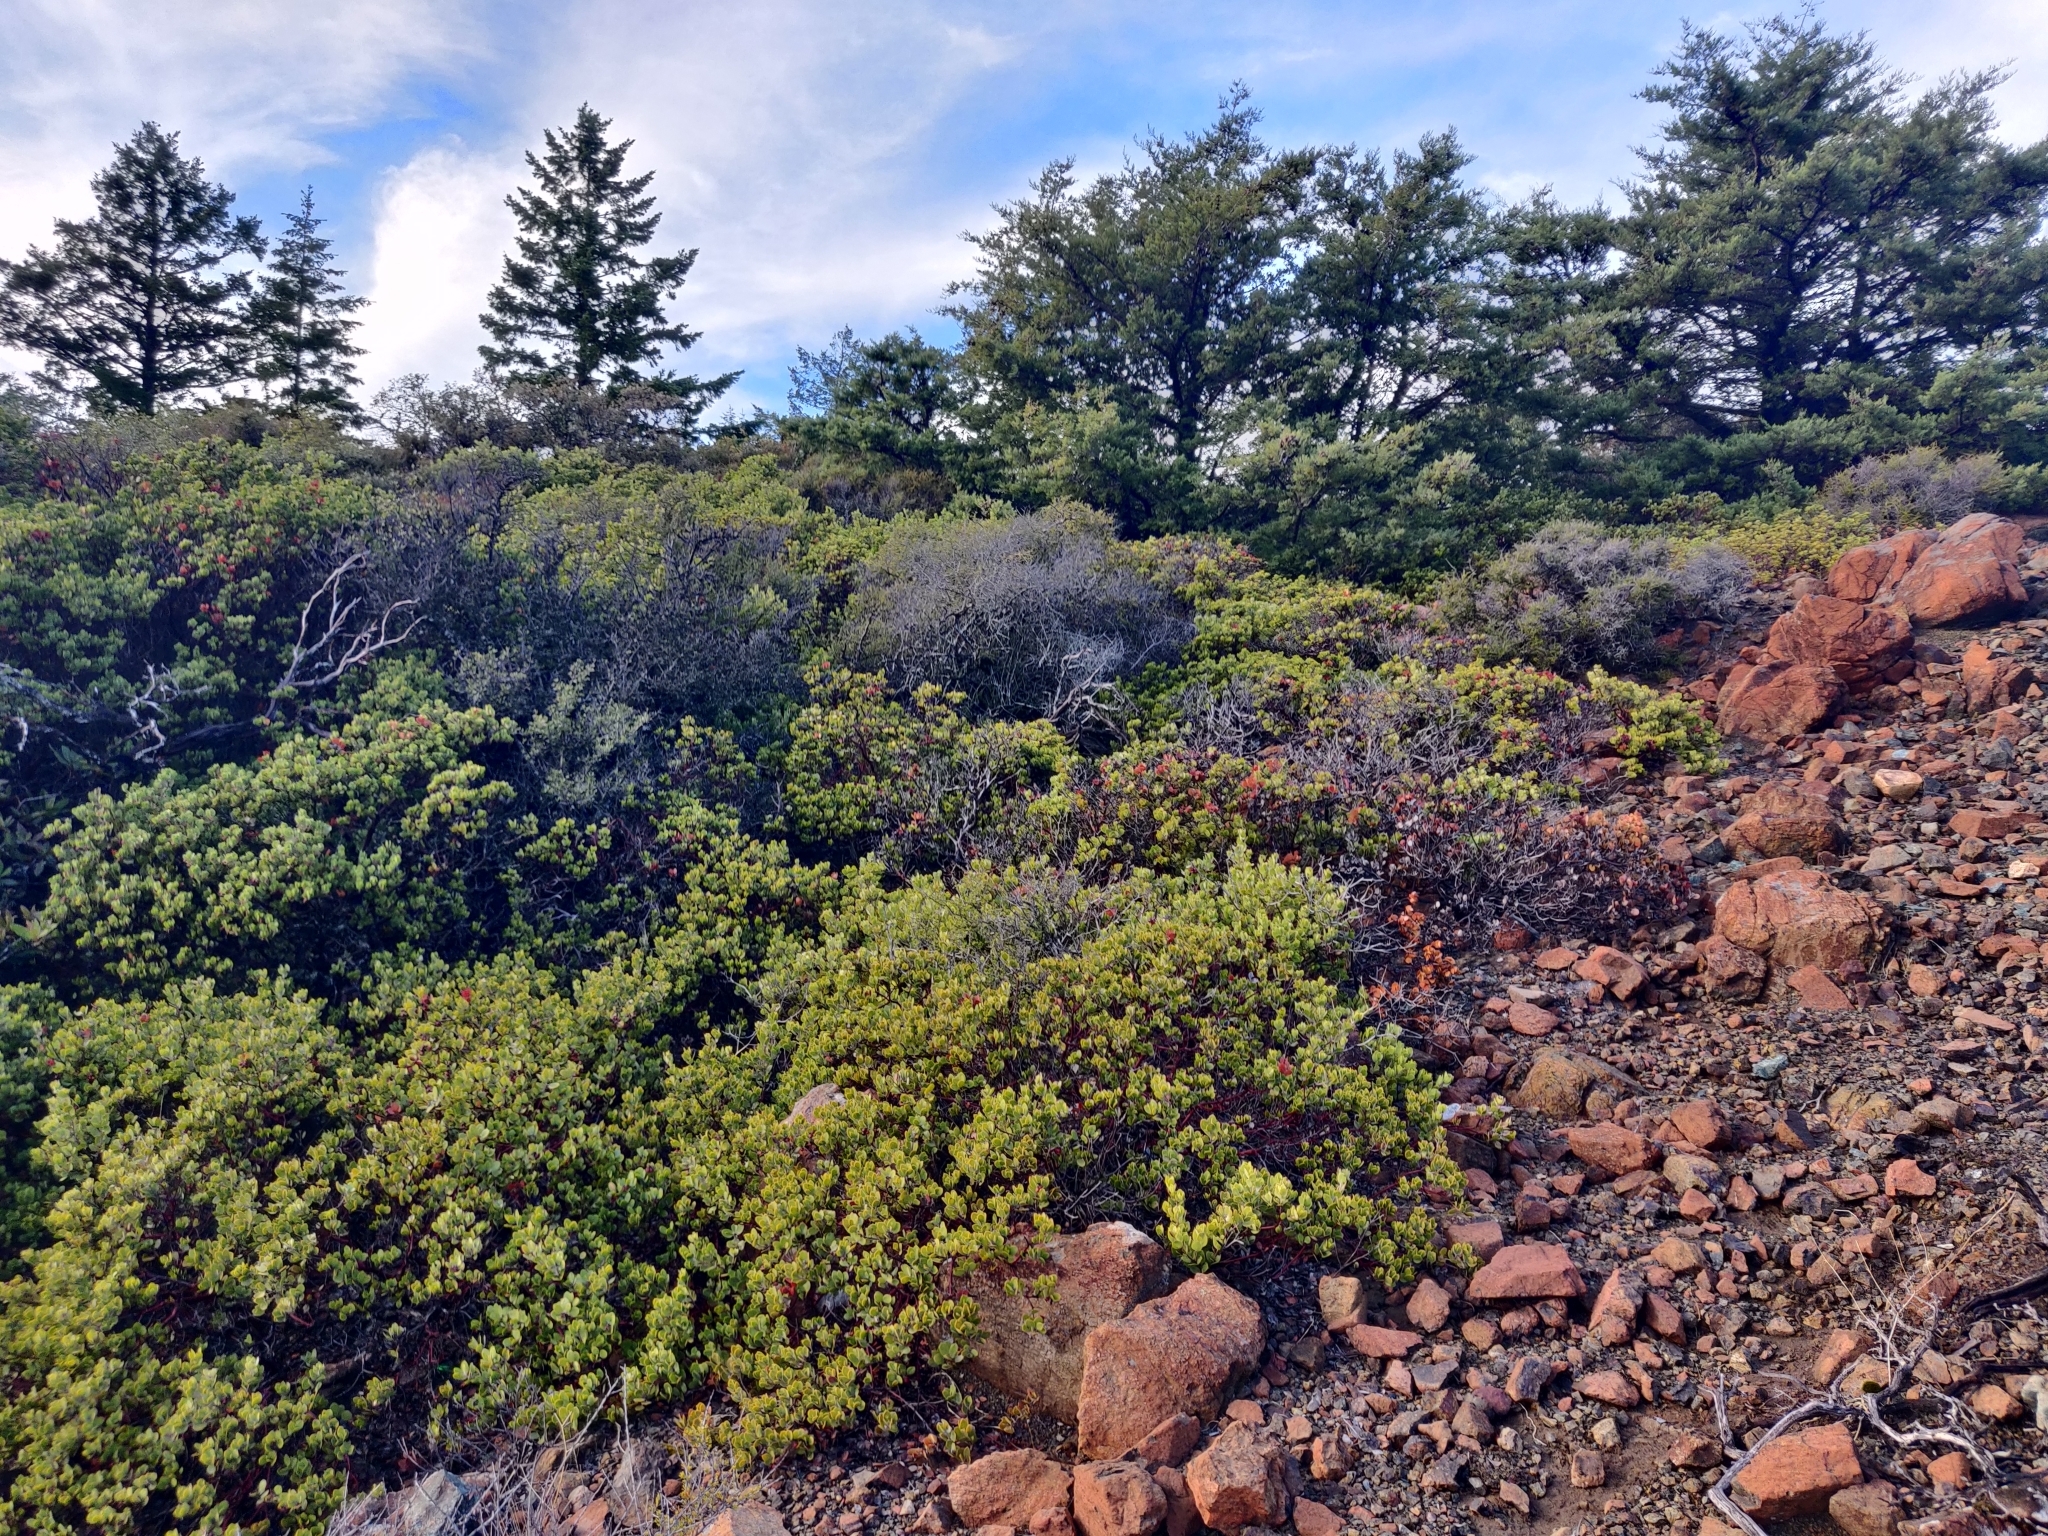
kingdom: Plantae
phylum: Tracheophyta
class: Magnoliopsida
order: Ericales
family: Ericaceae
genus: Arctostaphylos
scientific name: Arctostaphylos montana
